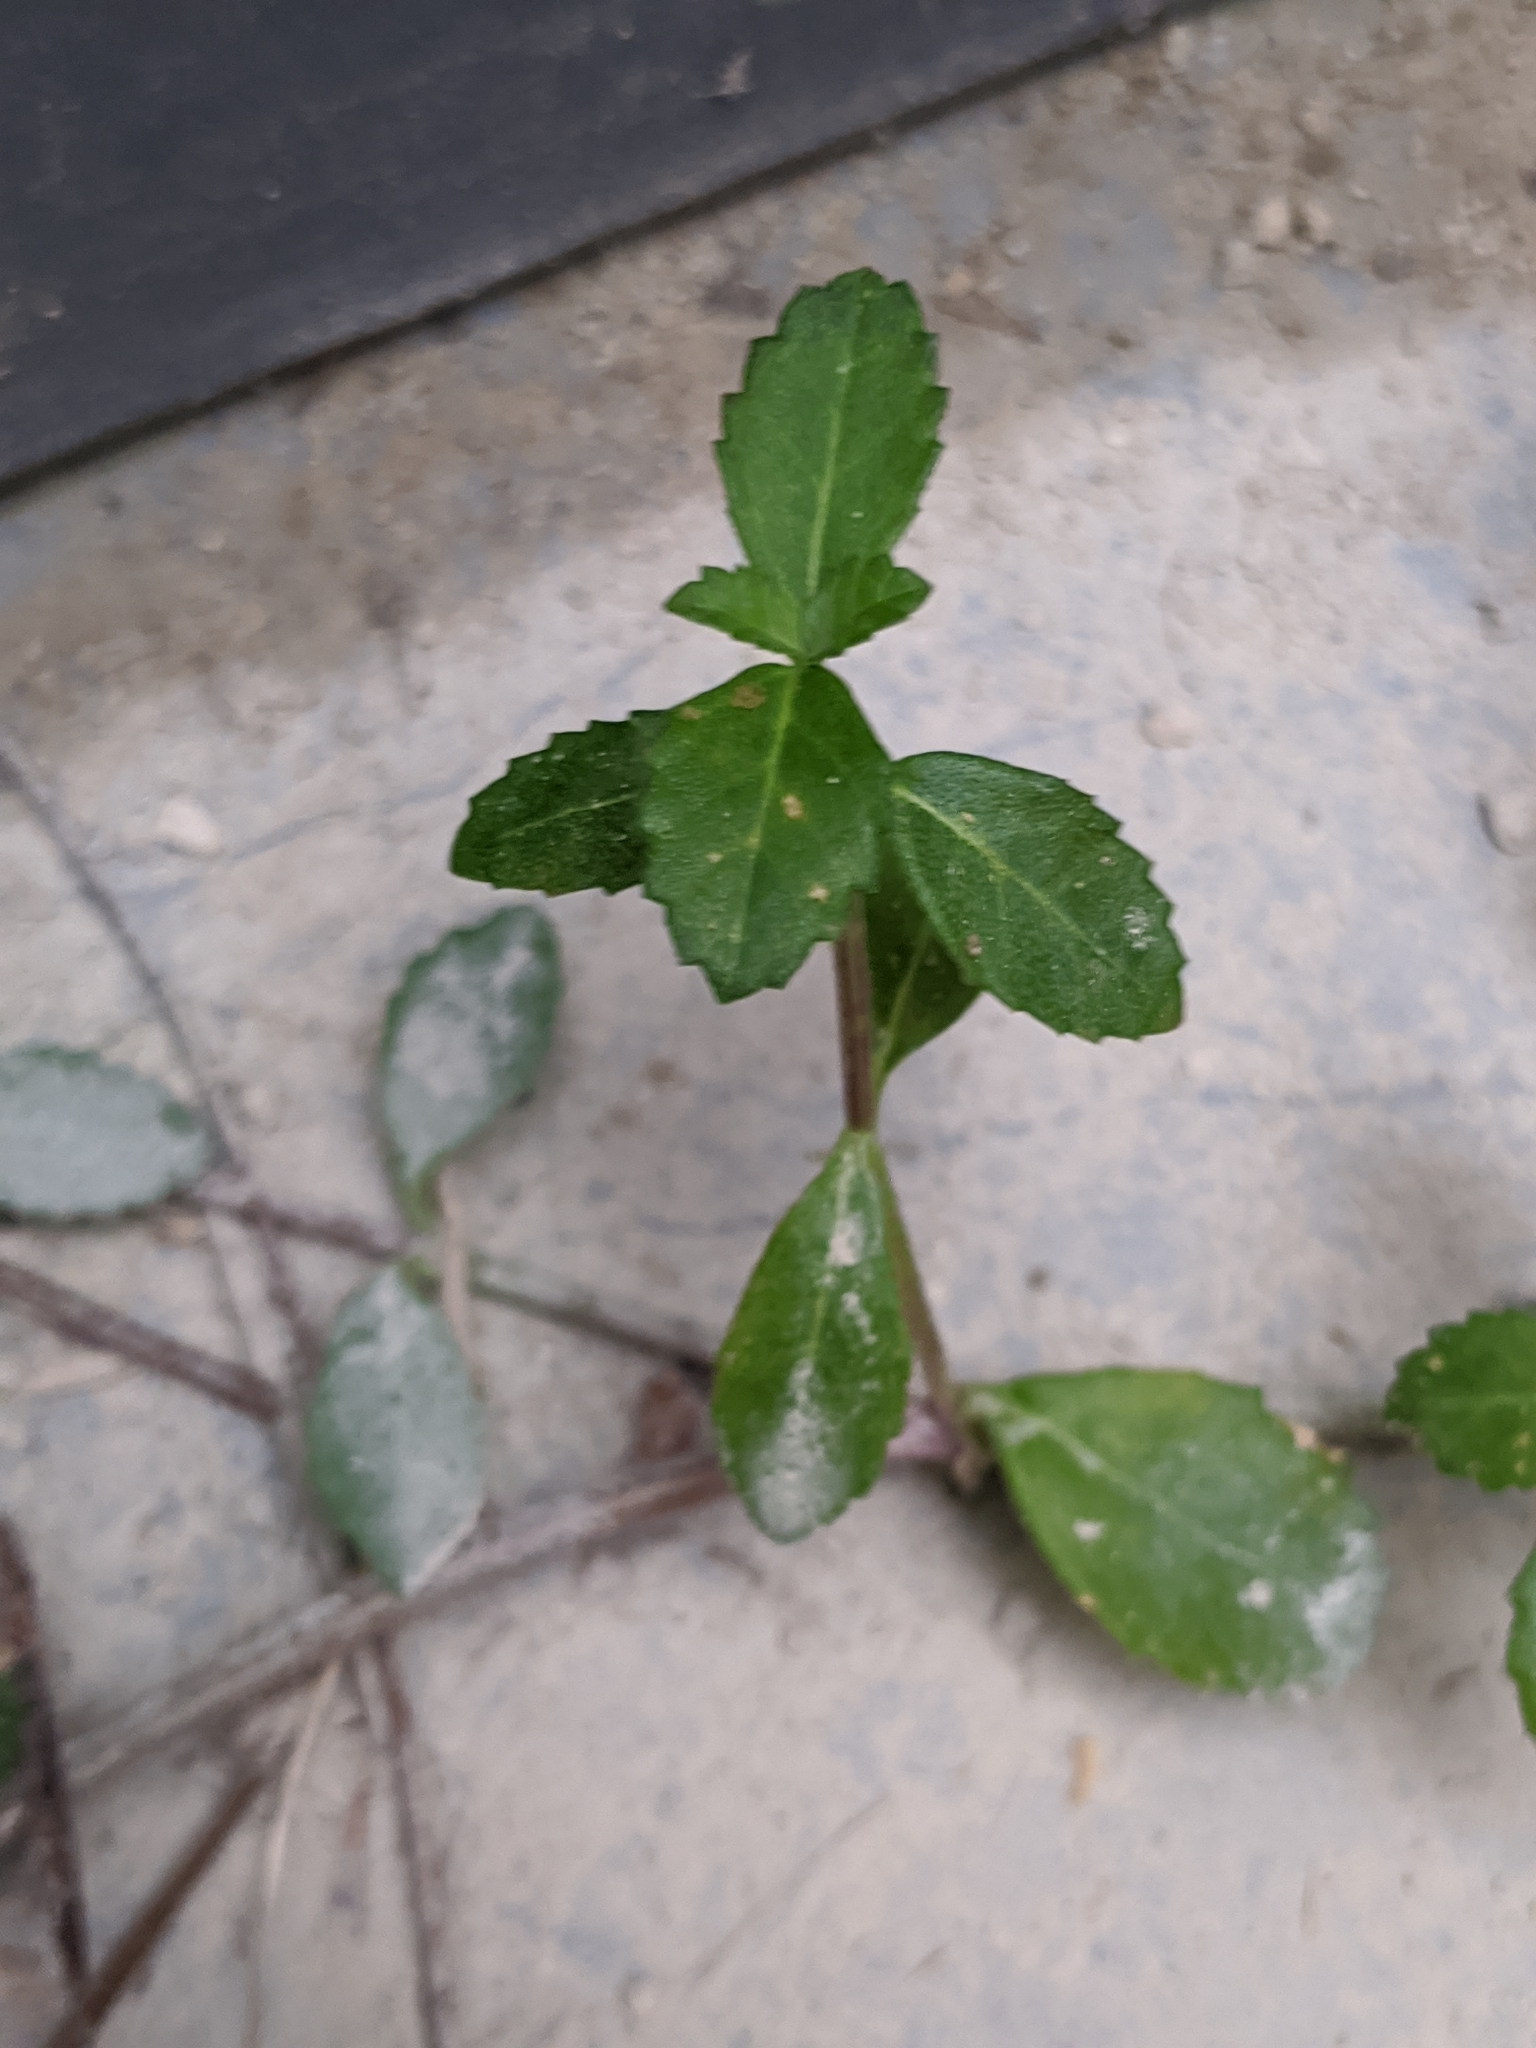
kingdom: Plantae
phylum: Tracheophyta
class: Magnoliopsida
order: Lamiales
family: Verbenaceae
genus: Phyla
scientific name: Phyla nodiflora
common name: Frogfruit
